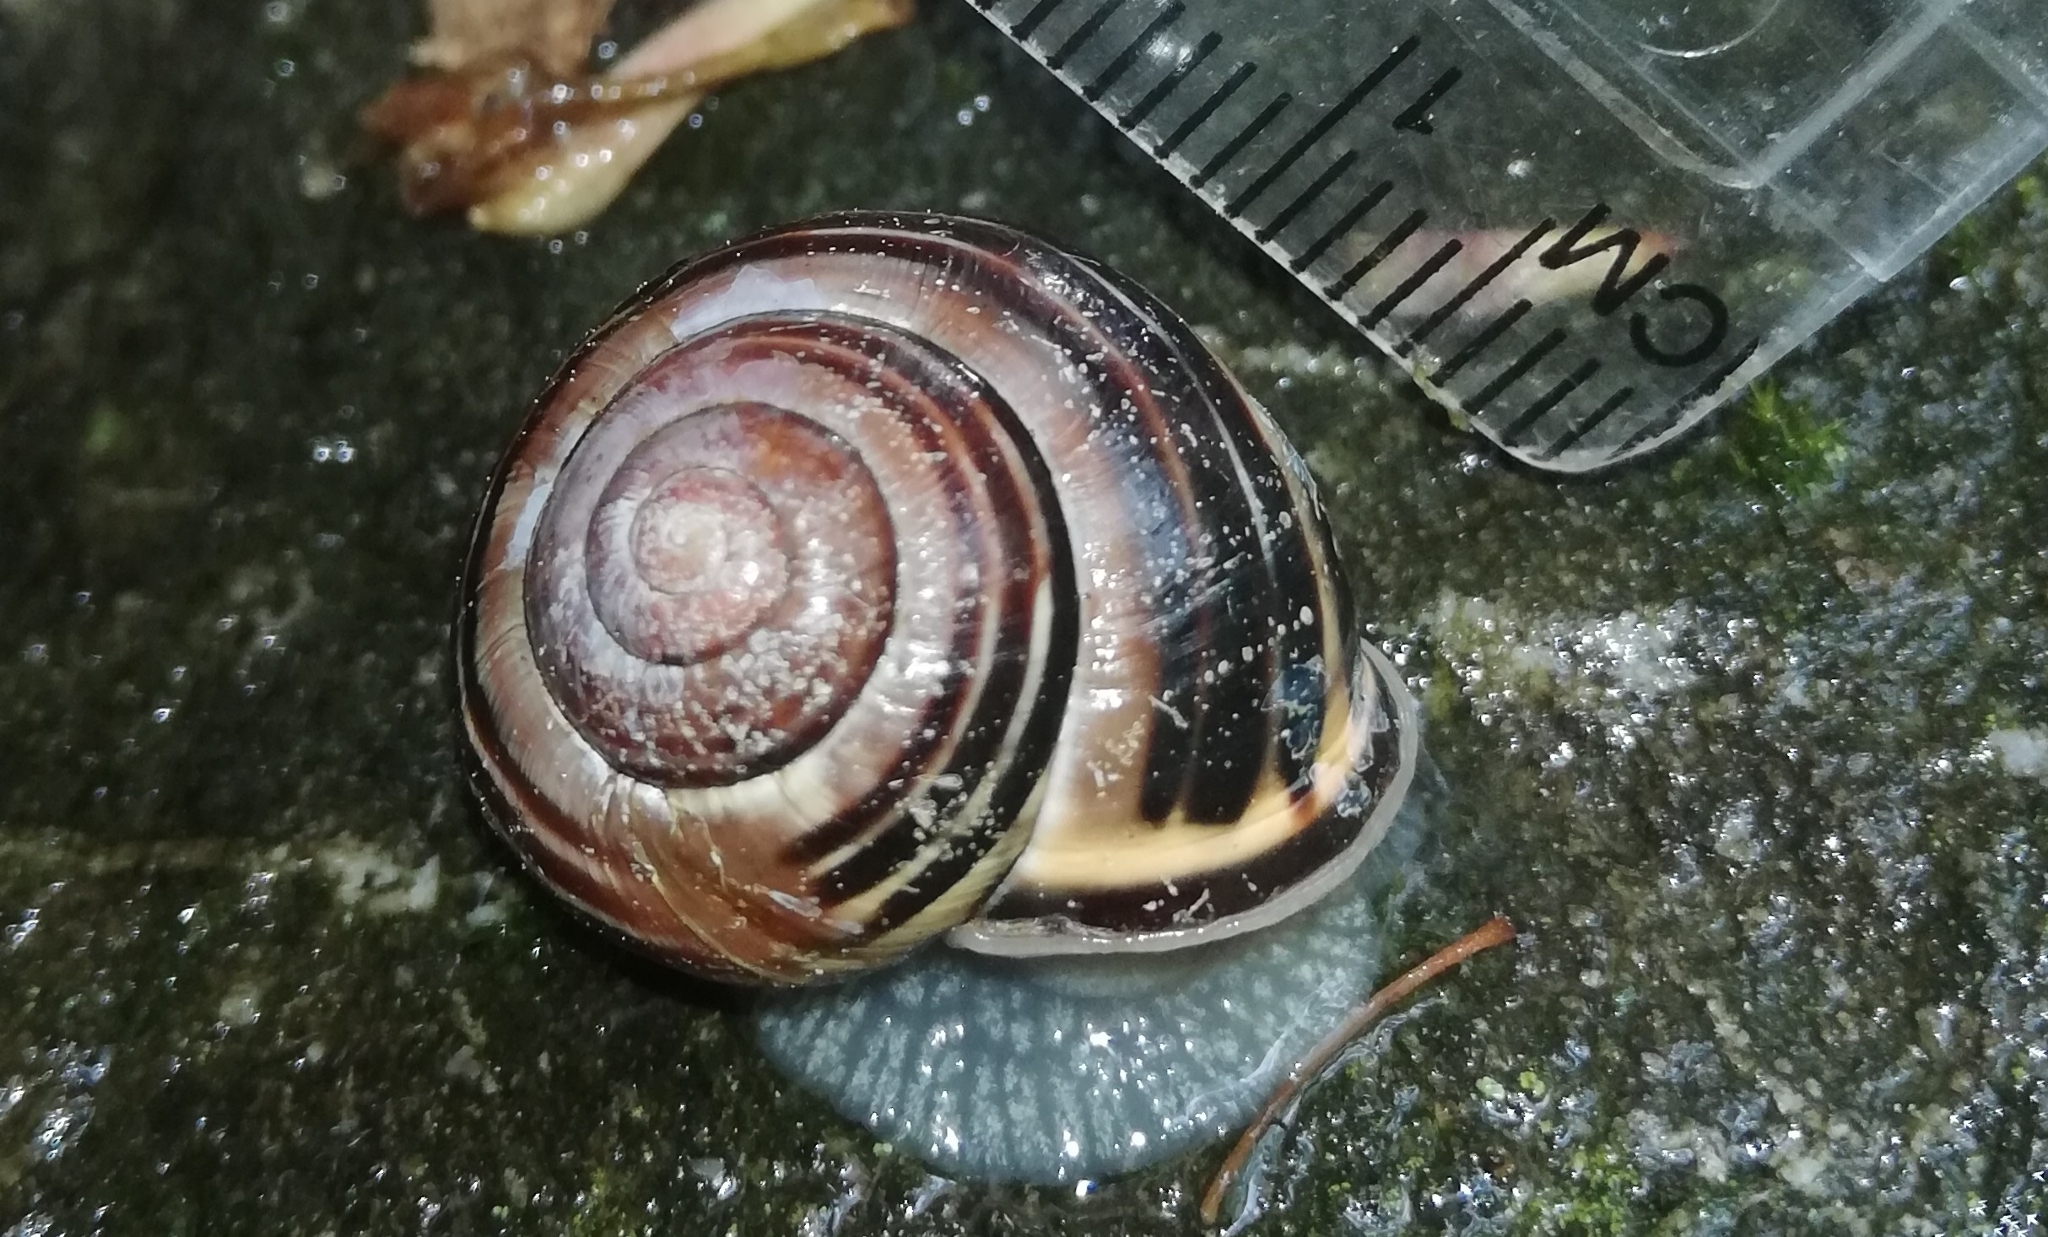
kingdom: Animalia
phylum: Mollusca
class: Gastropoda
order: Stylommatophora
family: Helicidae
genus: Cepaea
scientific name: Cepaea nemoralis
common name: Grovesnail
